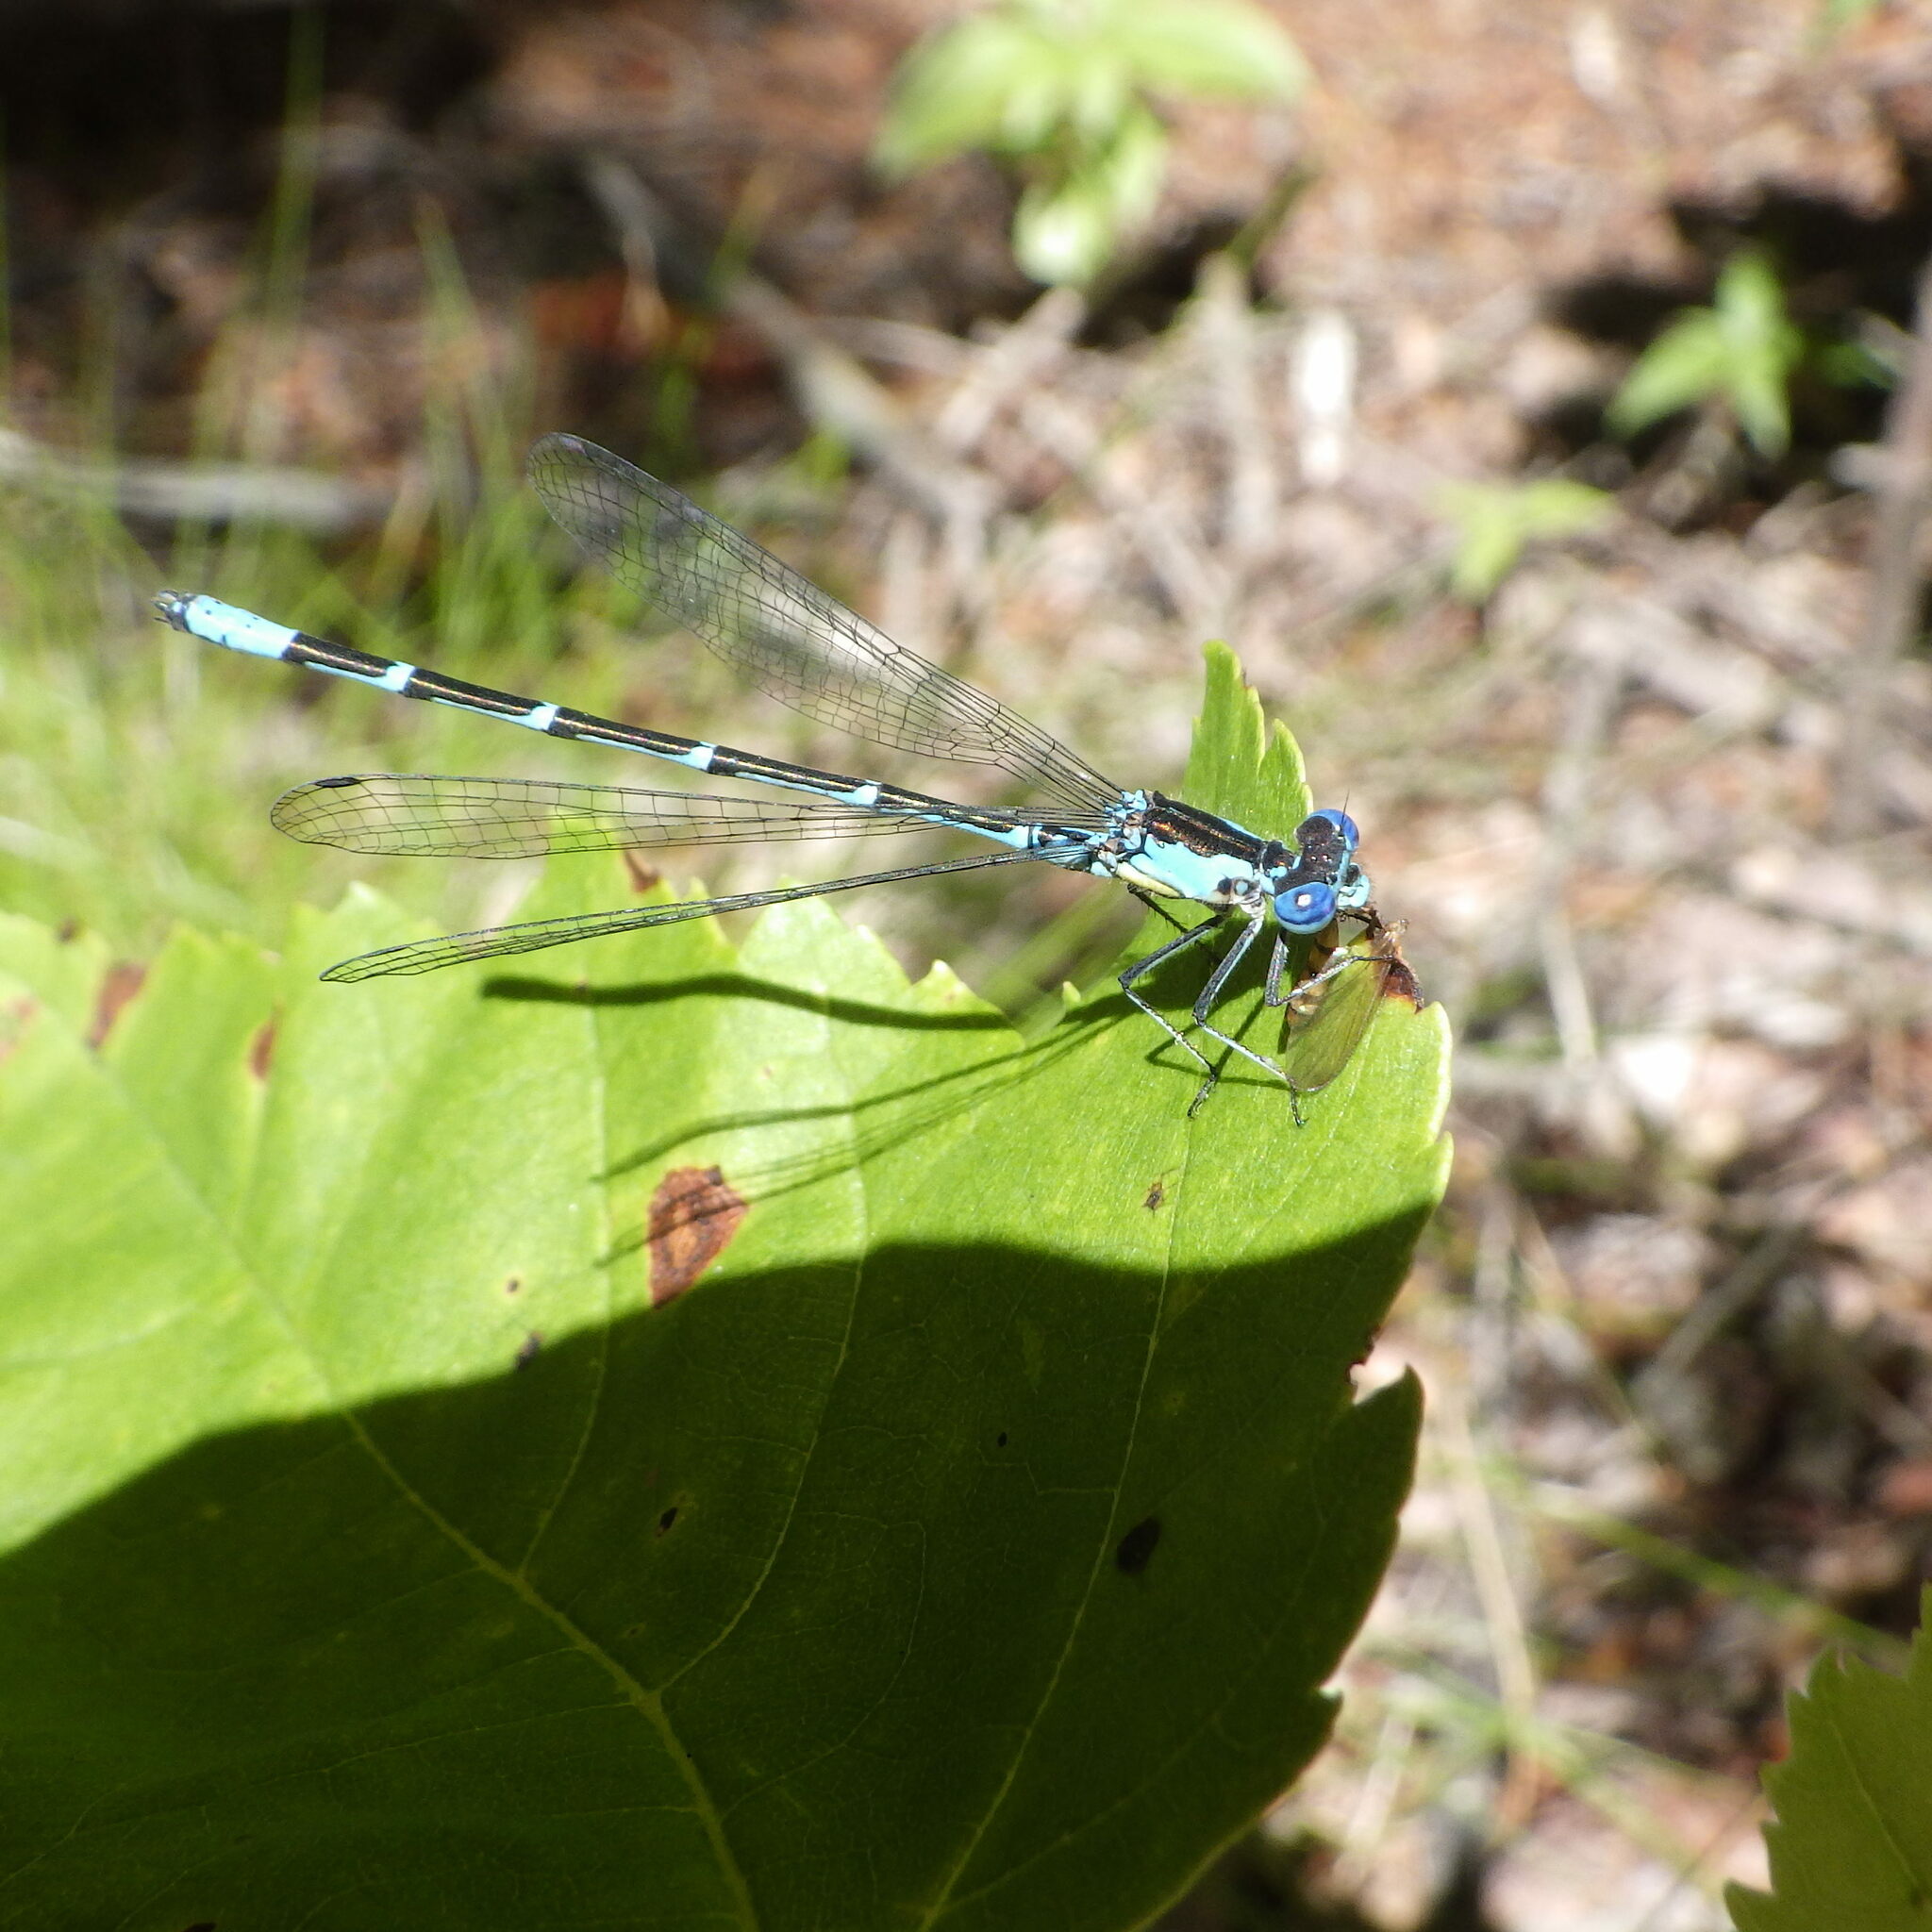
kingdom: Animalia
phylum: Arthropoda
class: Insecta
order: Odonata
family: Coenagrionidae
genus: Chromagrion
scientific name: Chromagrion conditum
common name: Aurora damsel
